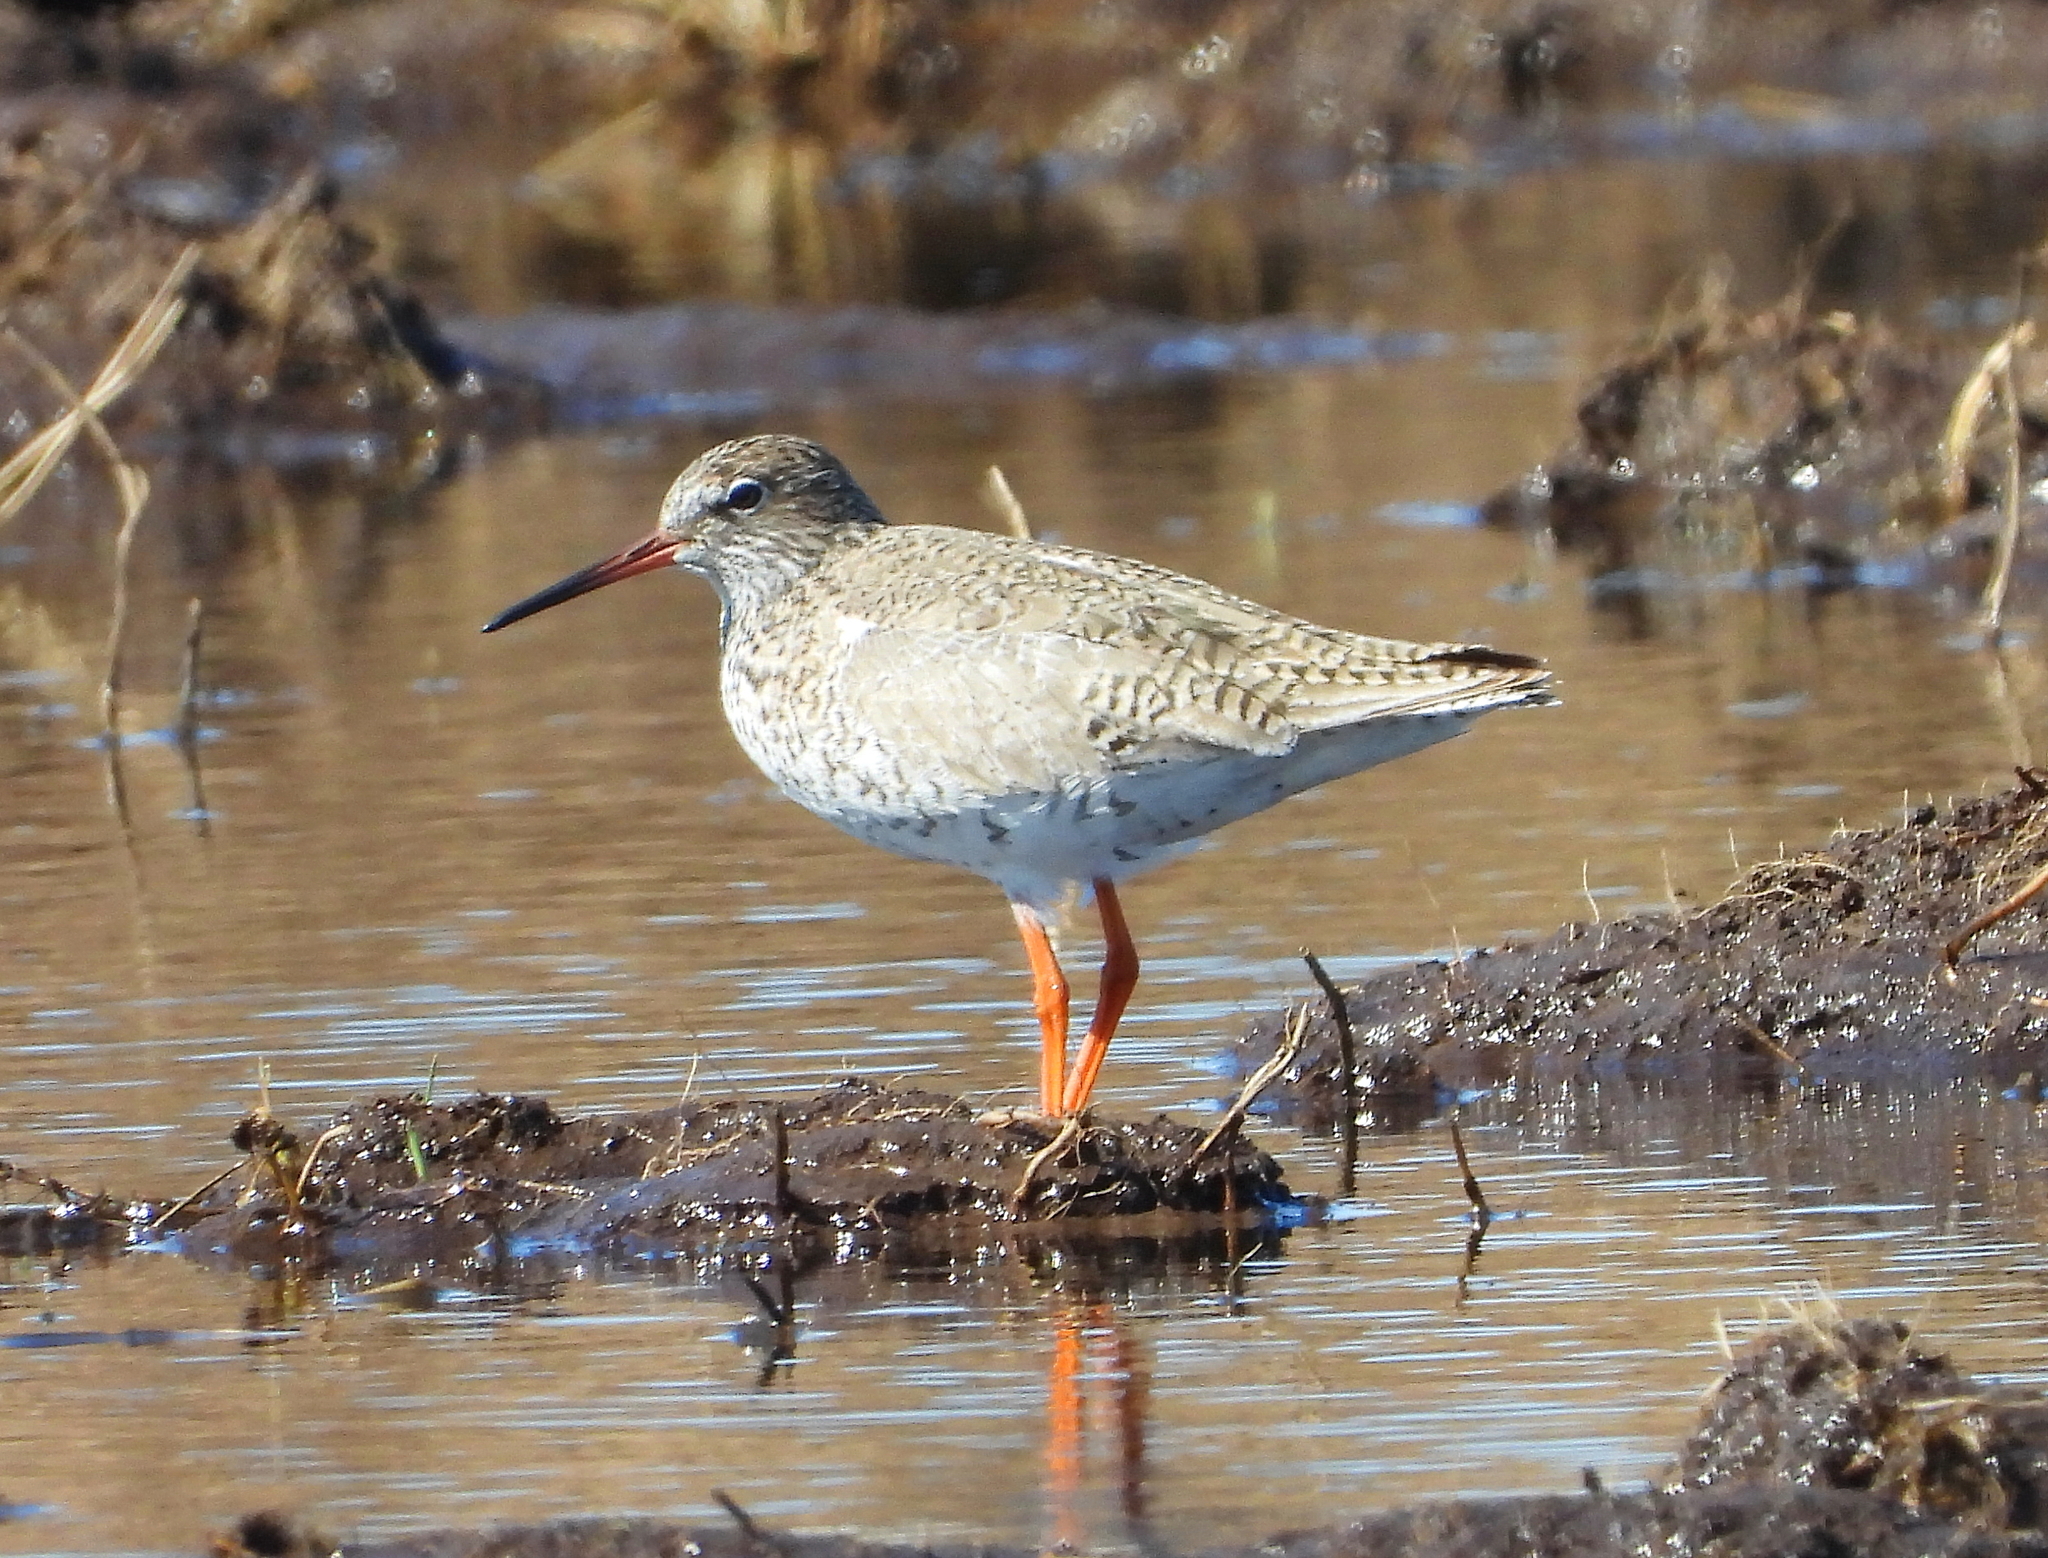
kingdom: Animalia
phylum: Chordata
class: Aves
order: Charadriiformes
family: Scolopacidae
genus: Tringa
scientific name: Tringa totanus
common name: Common redshank
